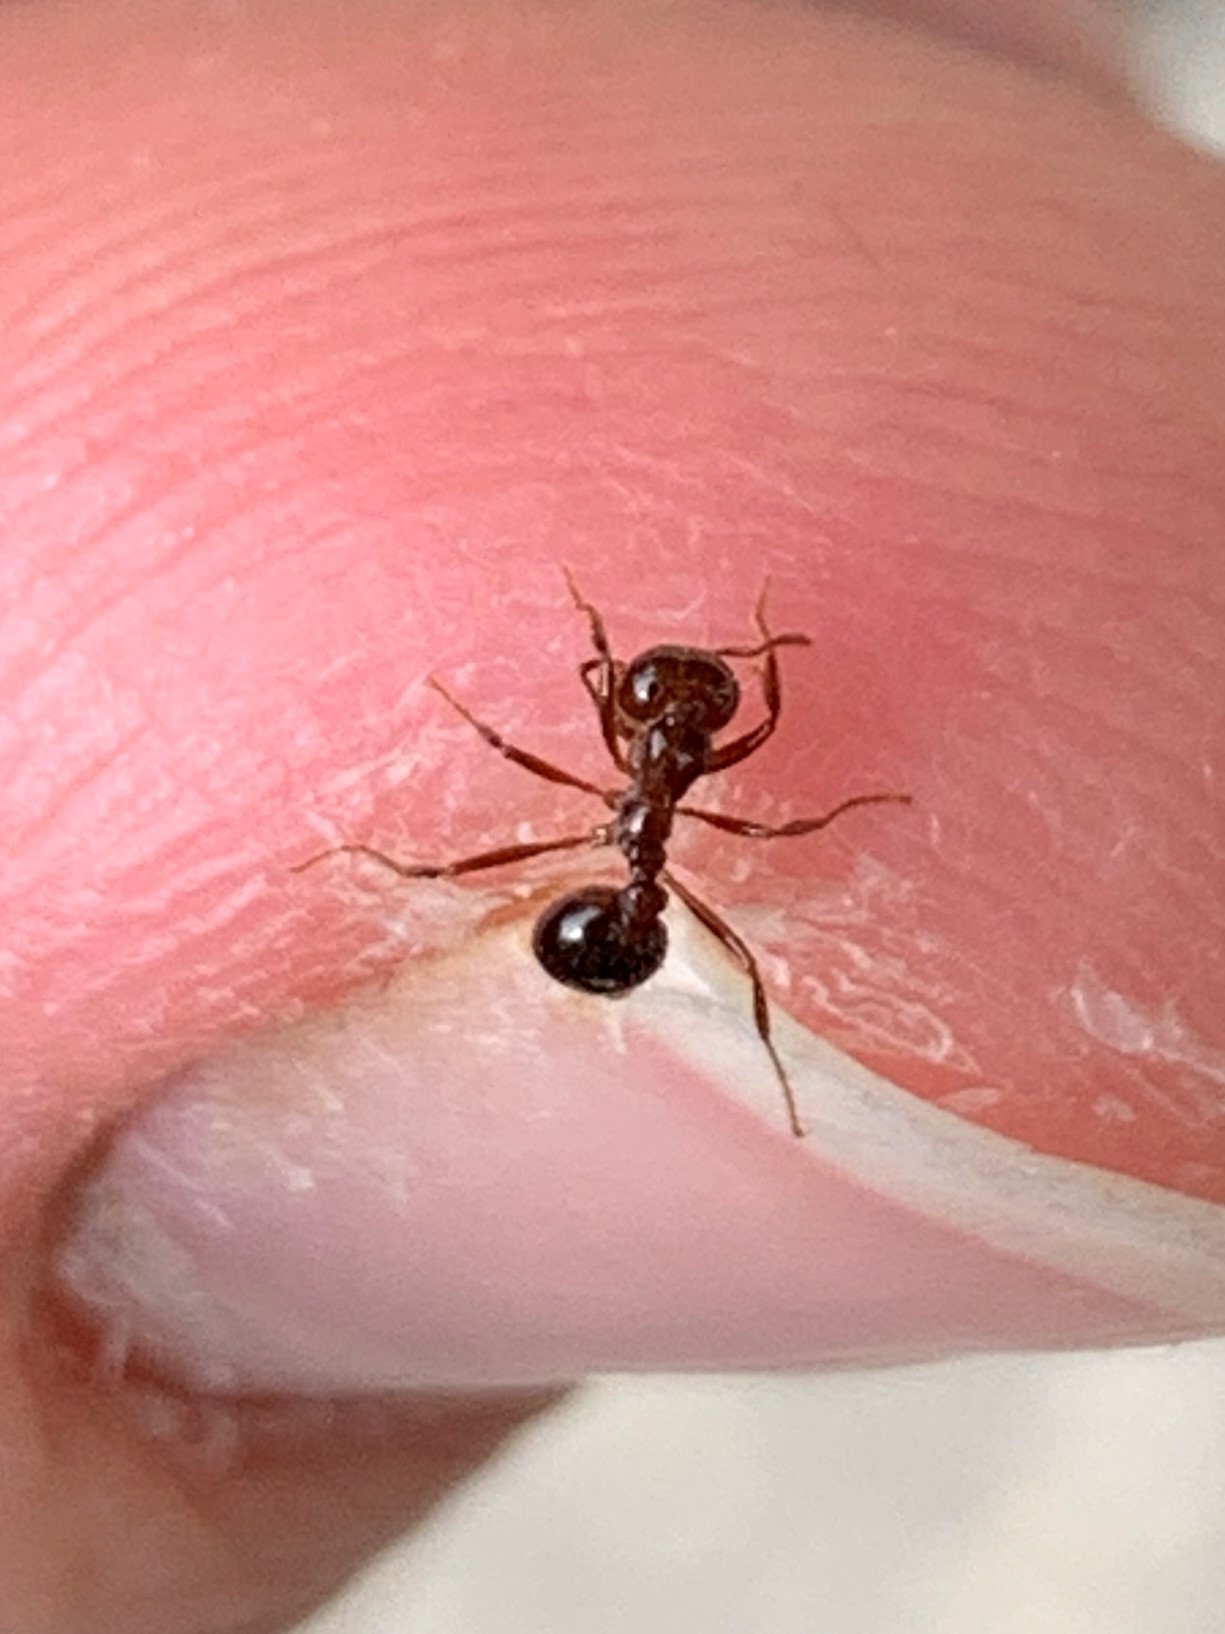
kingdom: Animalia
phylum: Arthropoda
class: Insecta
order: Hymenoptera
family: Formicidae
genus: Solenopsis
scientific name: Solenopsis invicta
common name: Red imported fire ant
